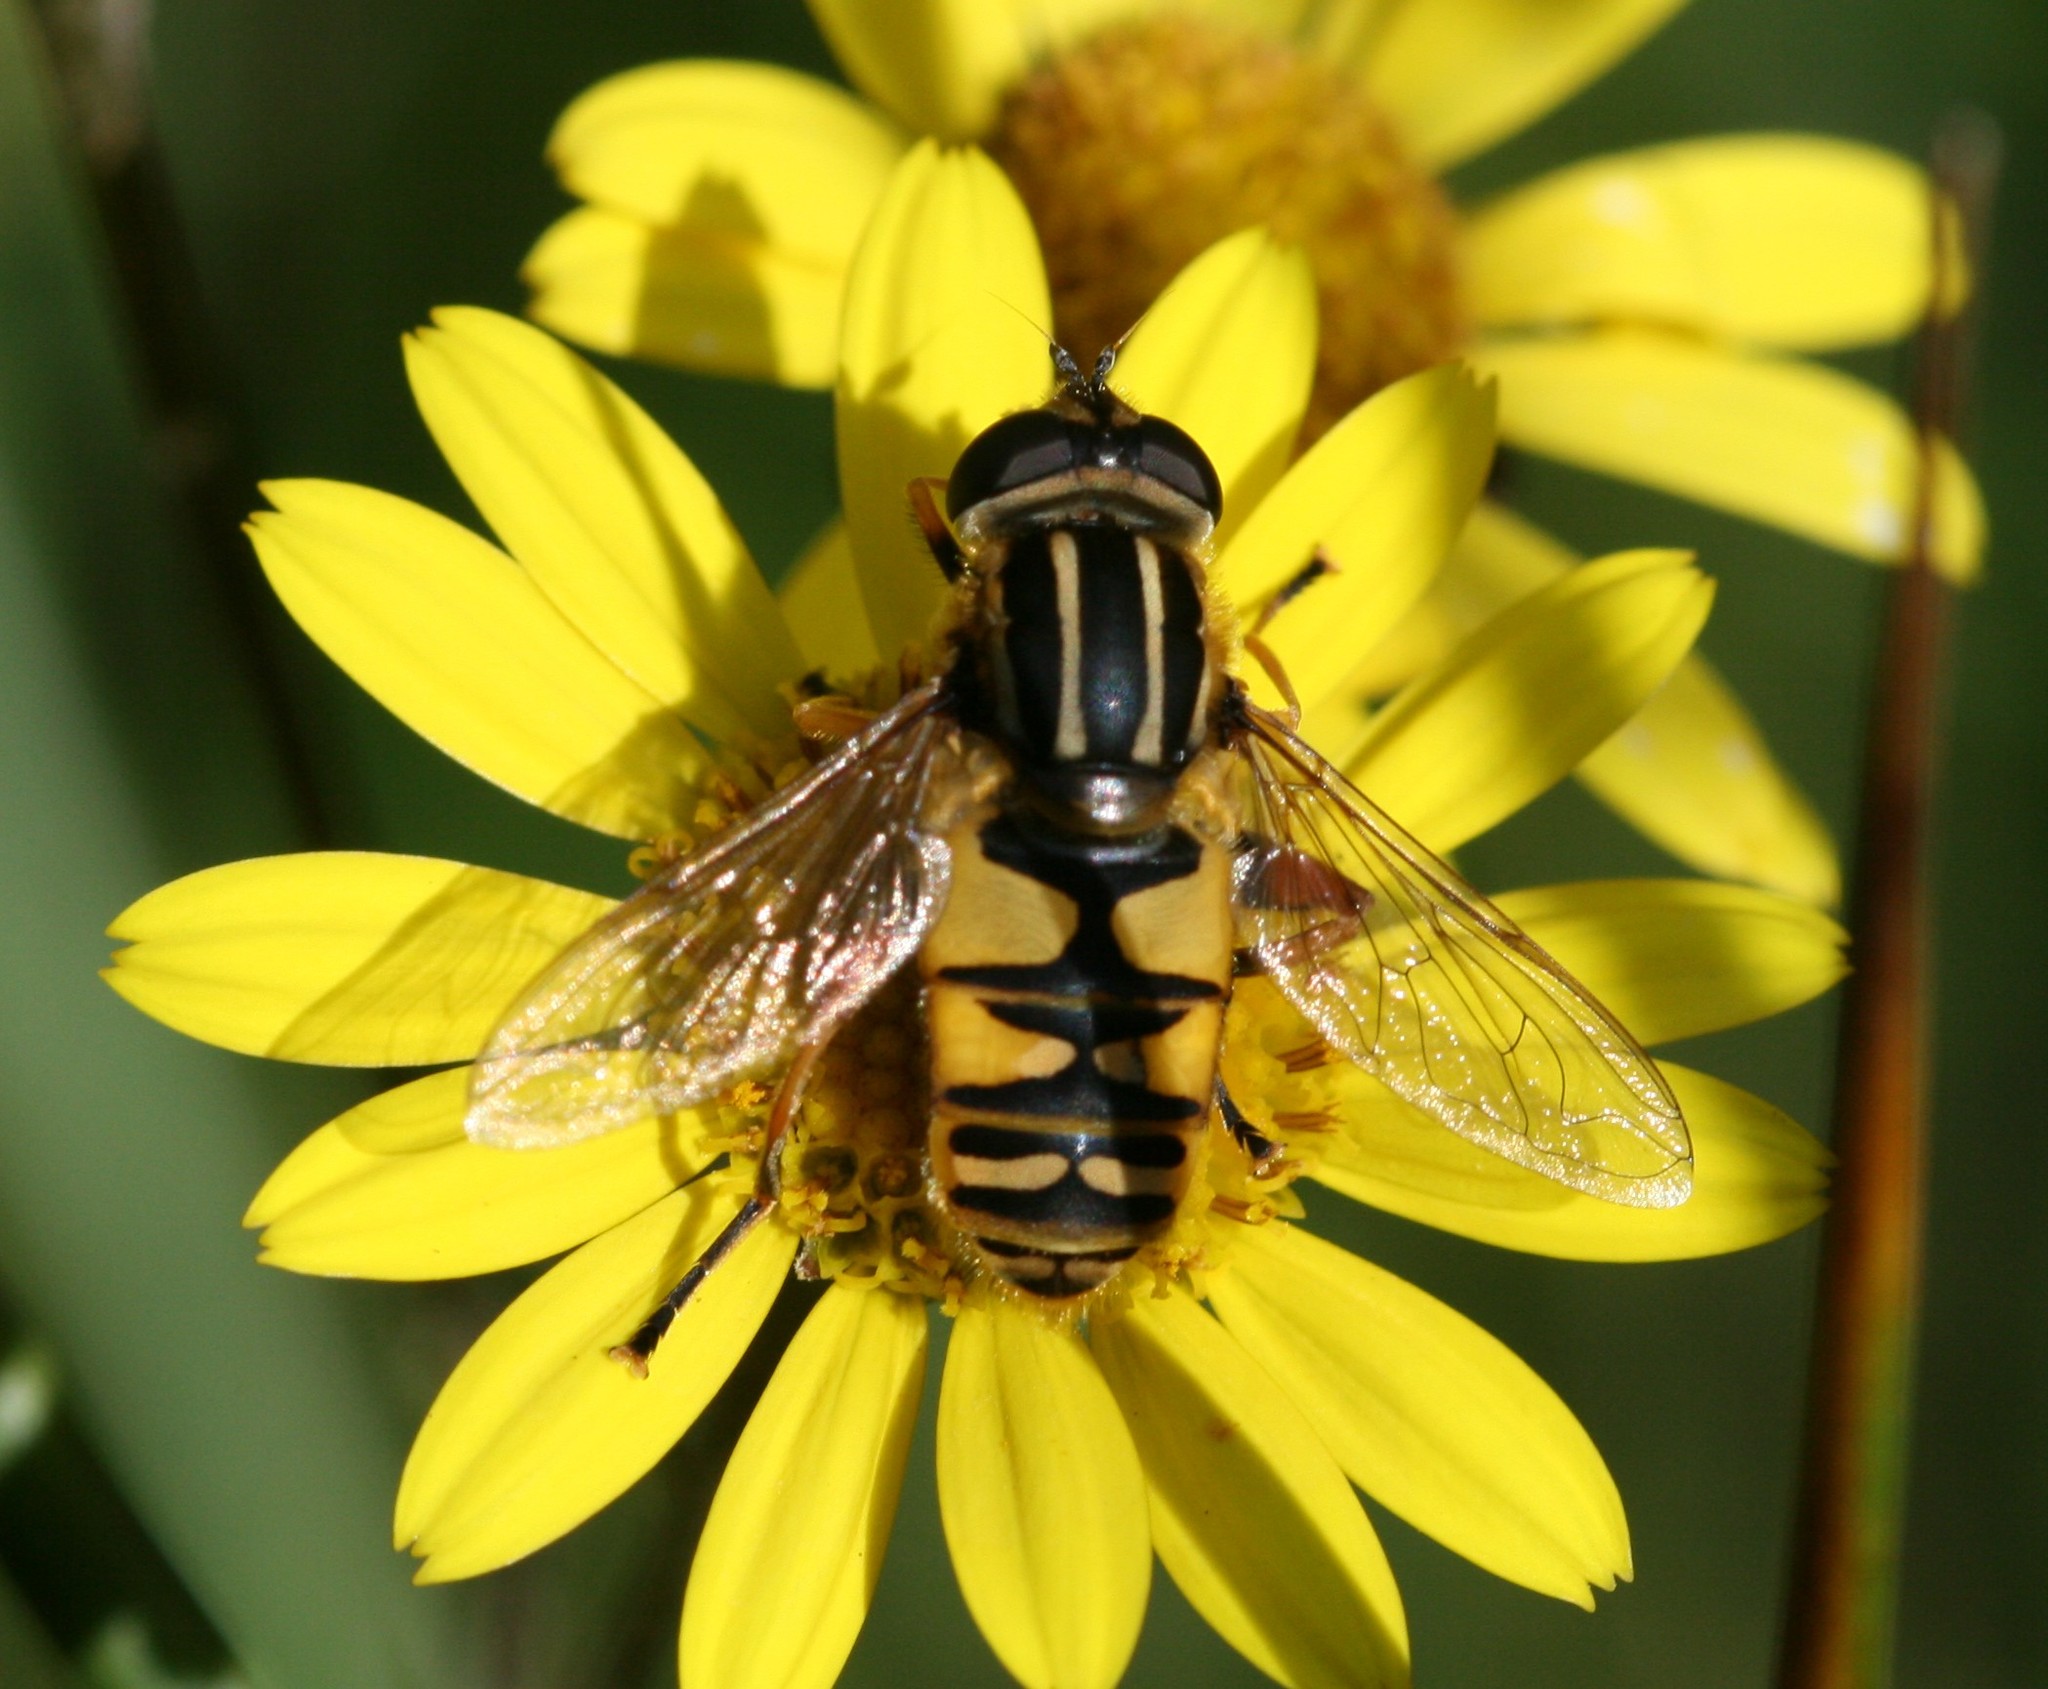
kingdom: Animalia
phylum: Arthropoda
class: Insecta
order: Diptera
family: Syrphidae
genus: Helophilus
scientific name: Helophilus pendulus
